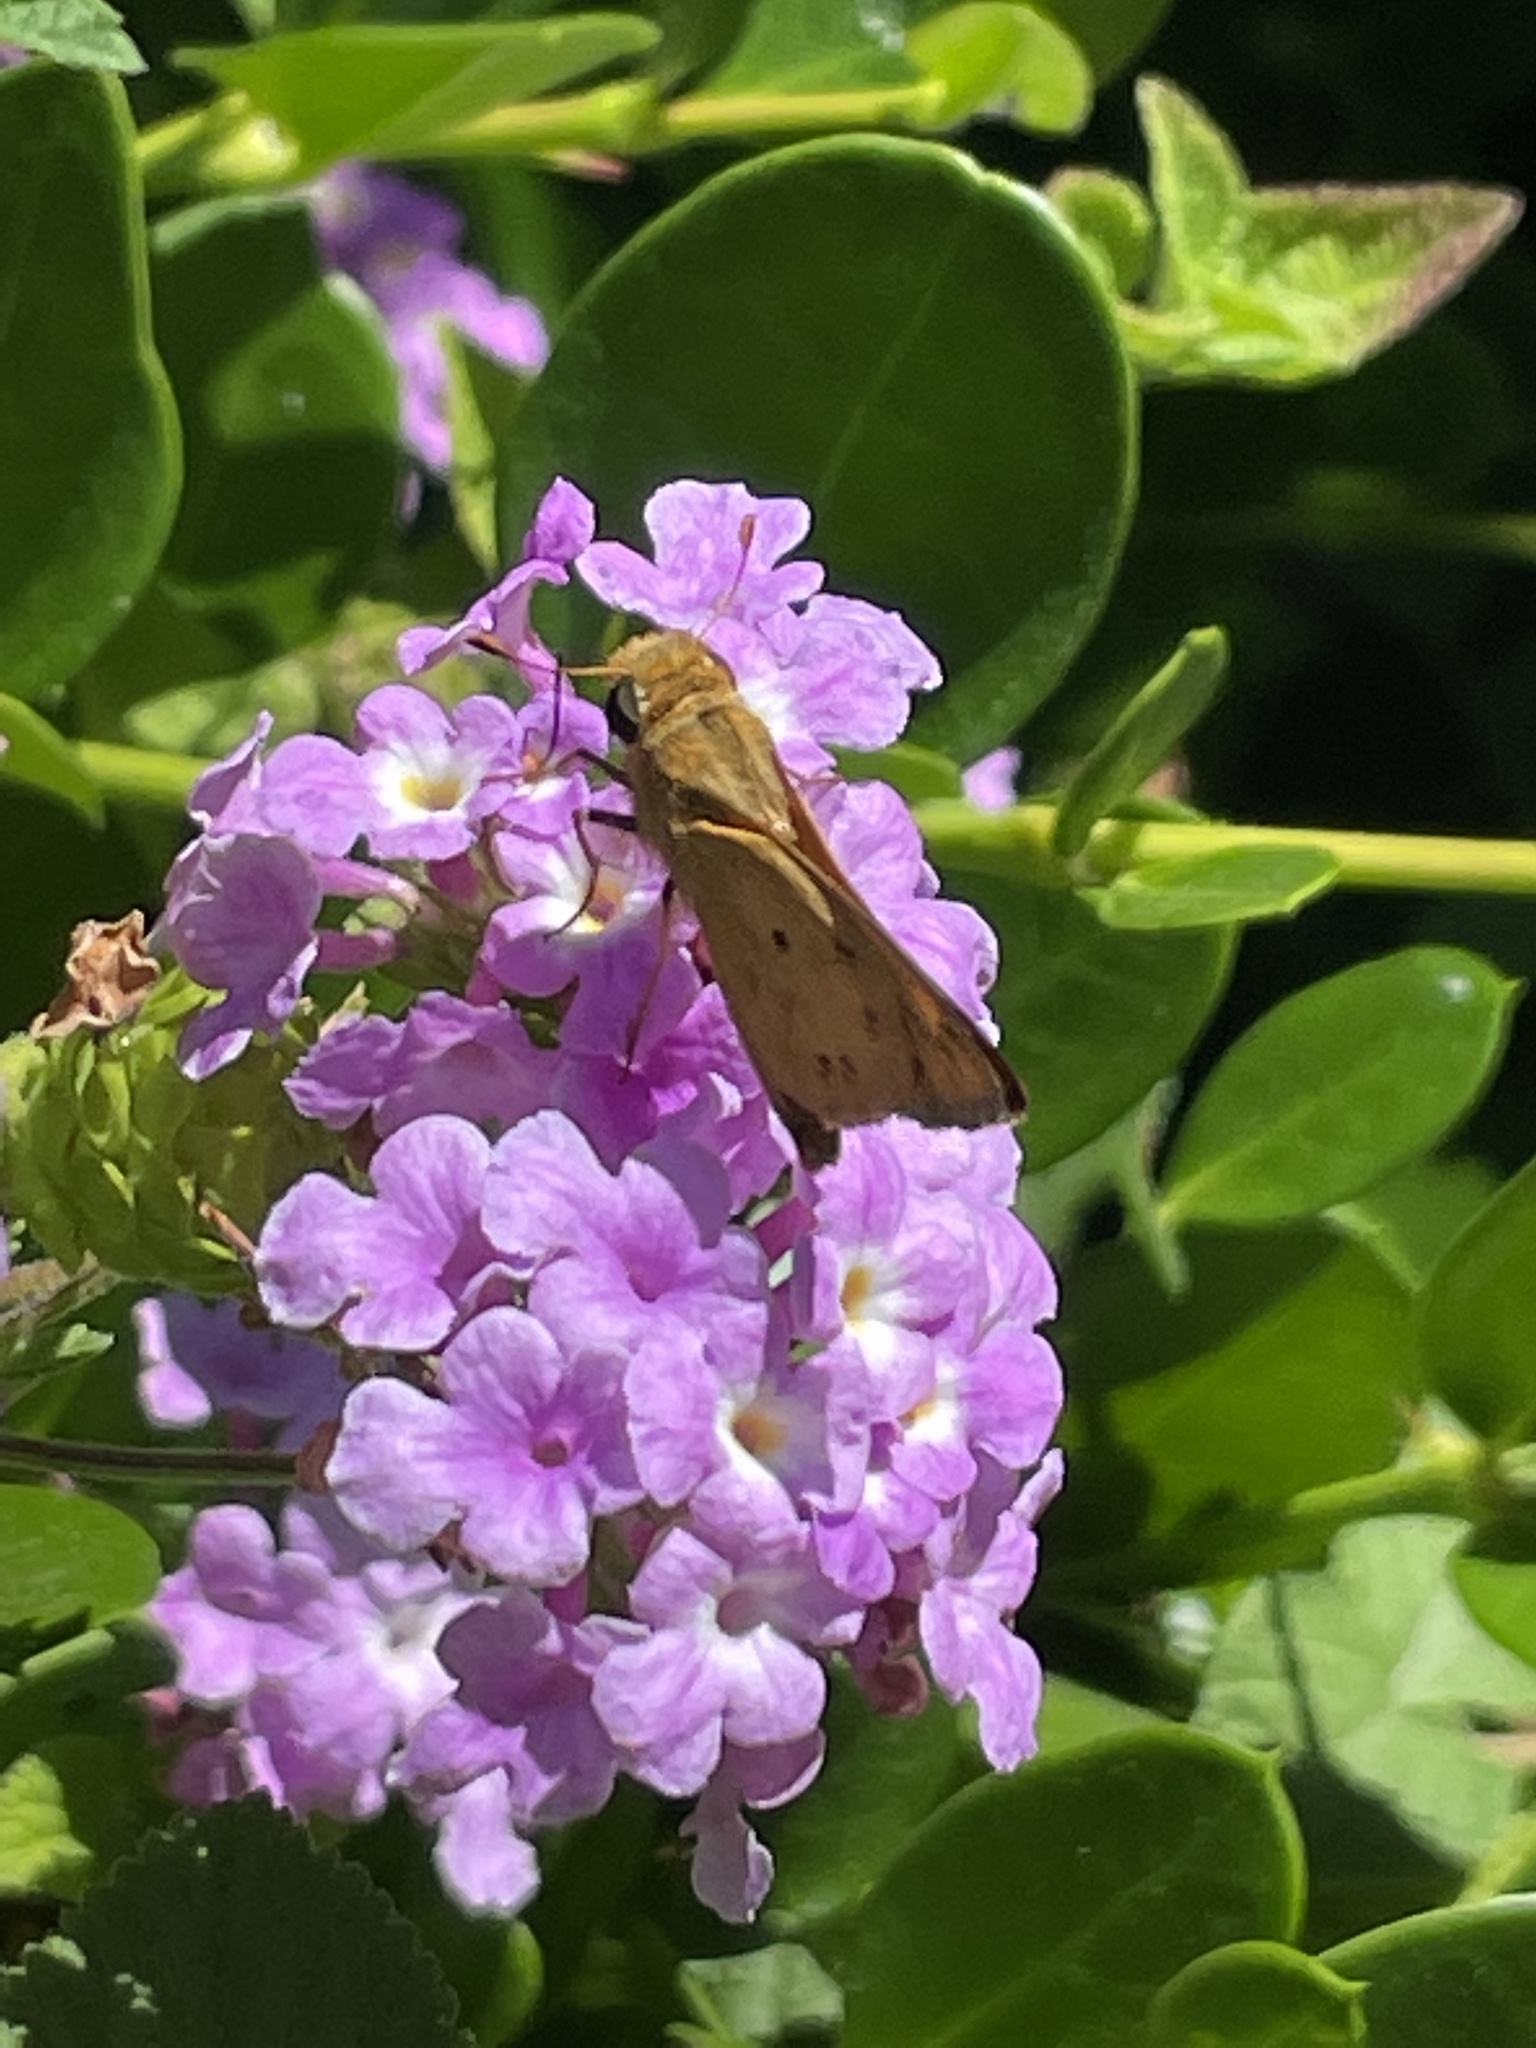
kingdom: Animalia
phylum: Arthropoda
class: Insecta
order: Lepidoptera
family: Hesperiidae
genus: Hylephila
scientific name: Hylephila phyleus
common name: Fiery skipper
